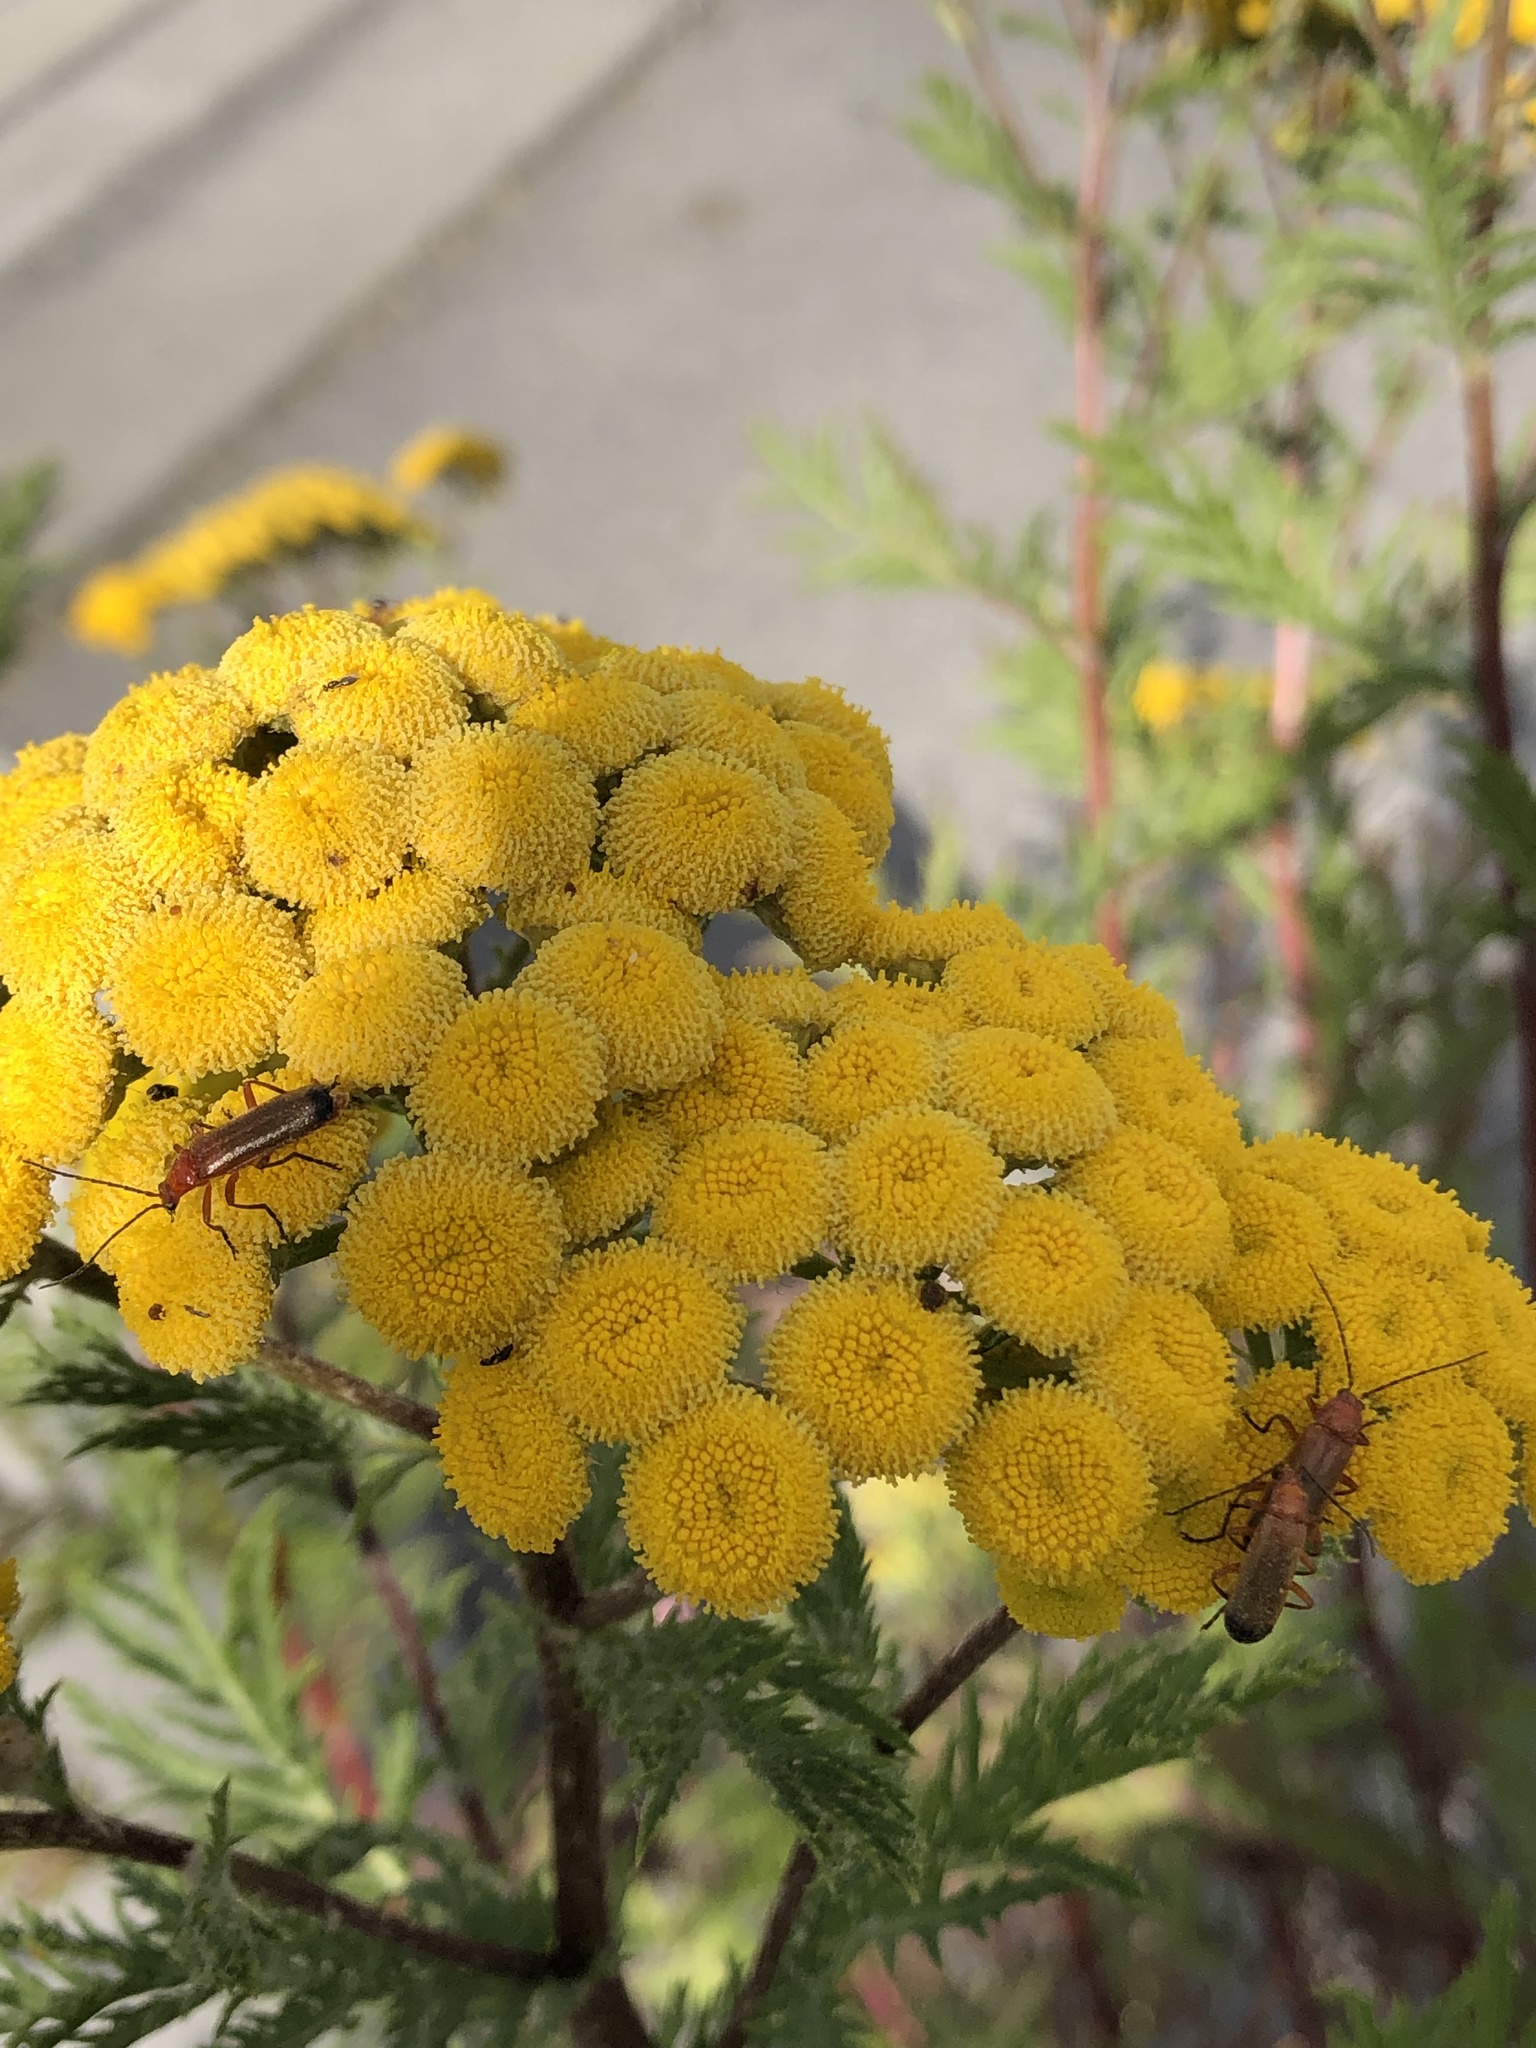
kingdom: Animalia
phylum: Arthropoda
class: Insecta
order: Coleoptera
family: Cantharidae
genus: Rhagonycha
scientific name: Rhagonycha fulva
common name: Common red soldier beetle
